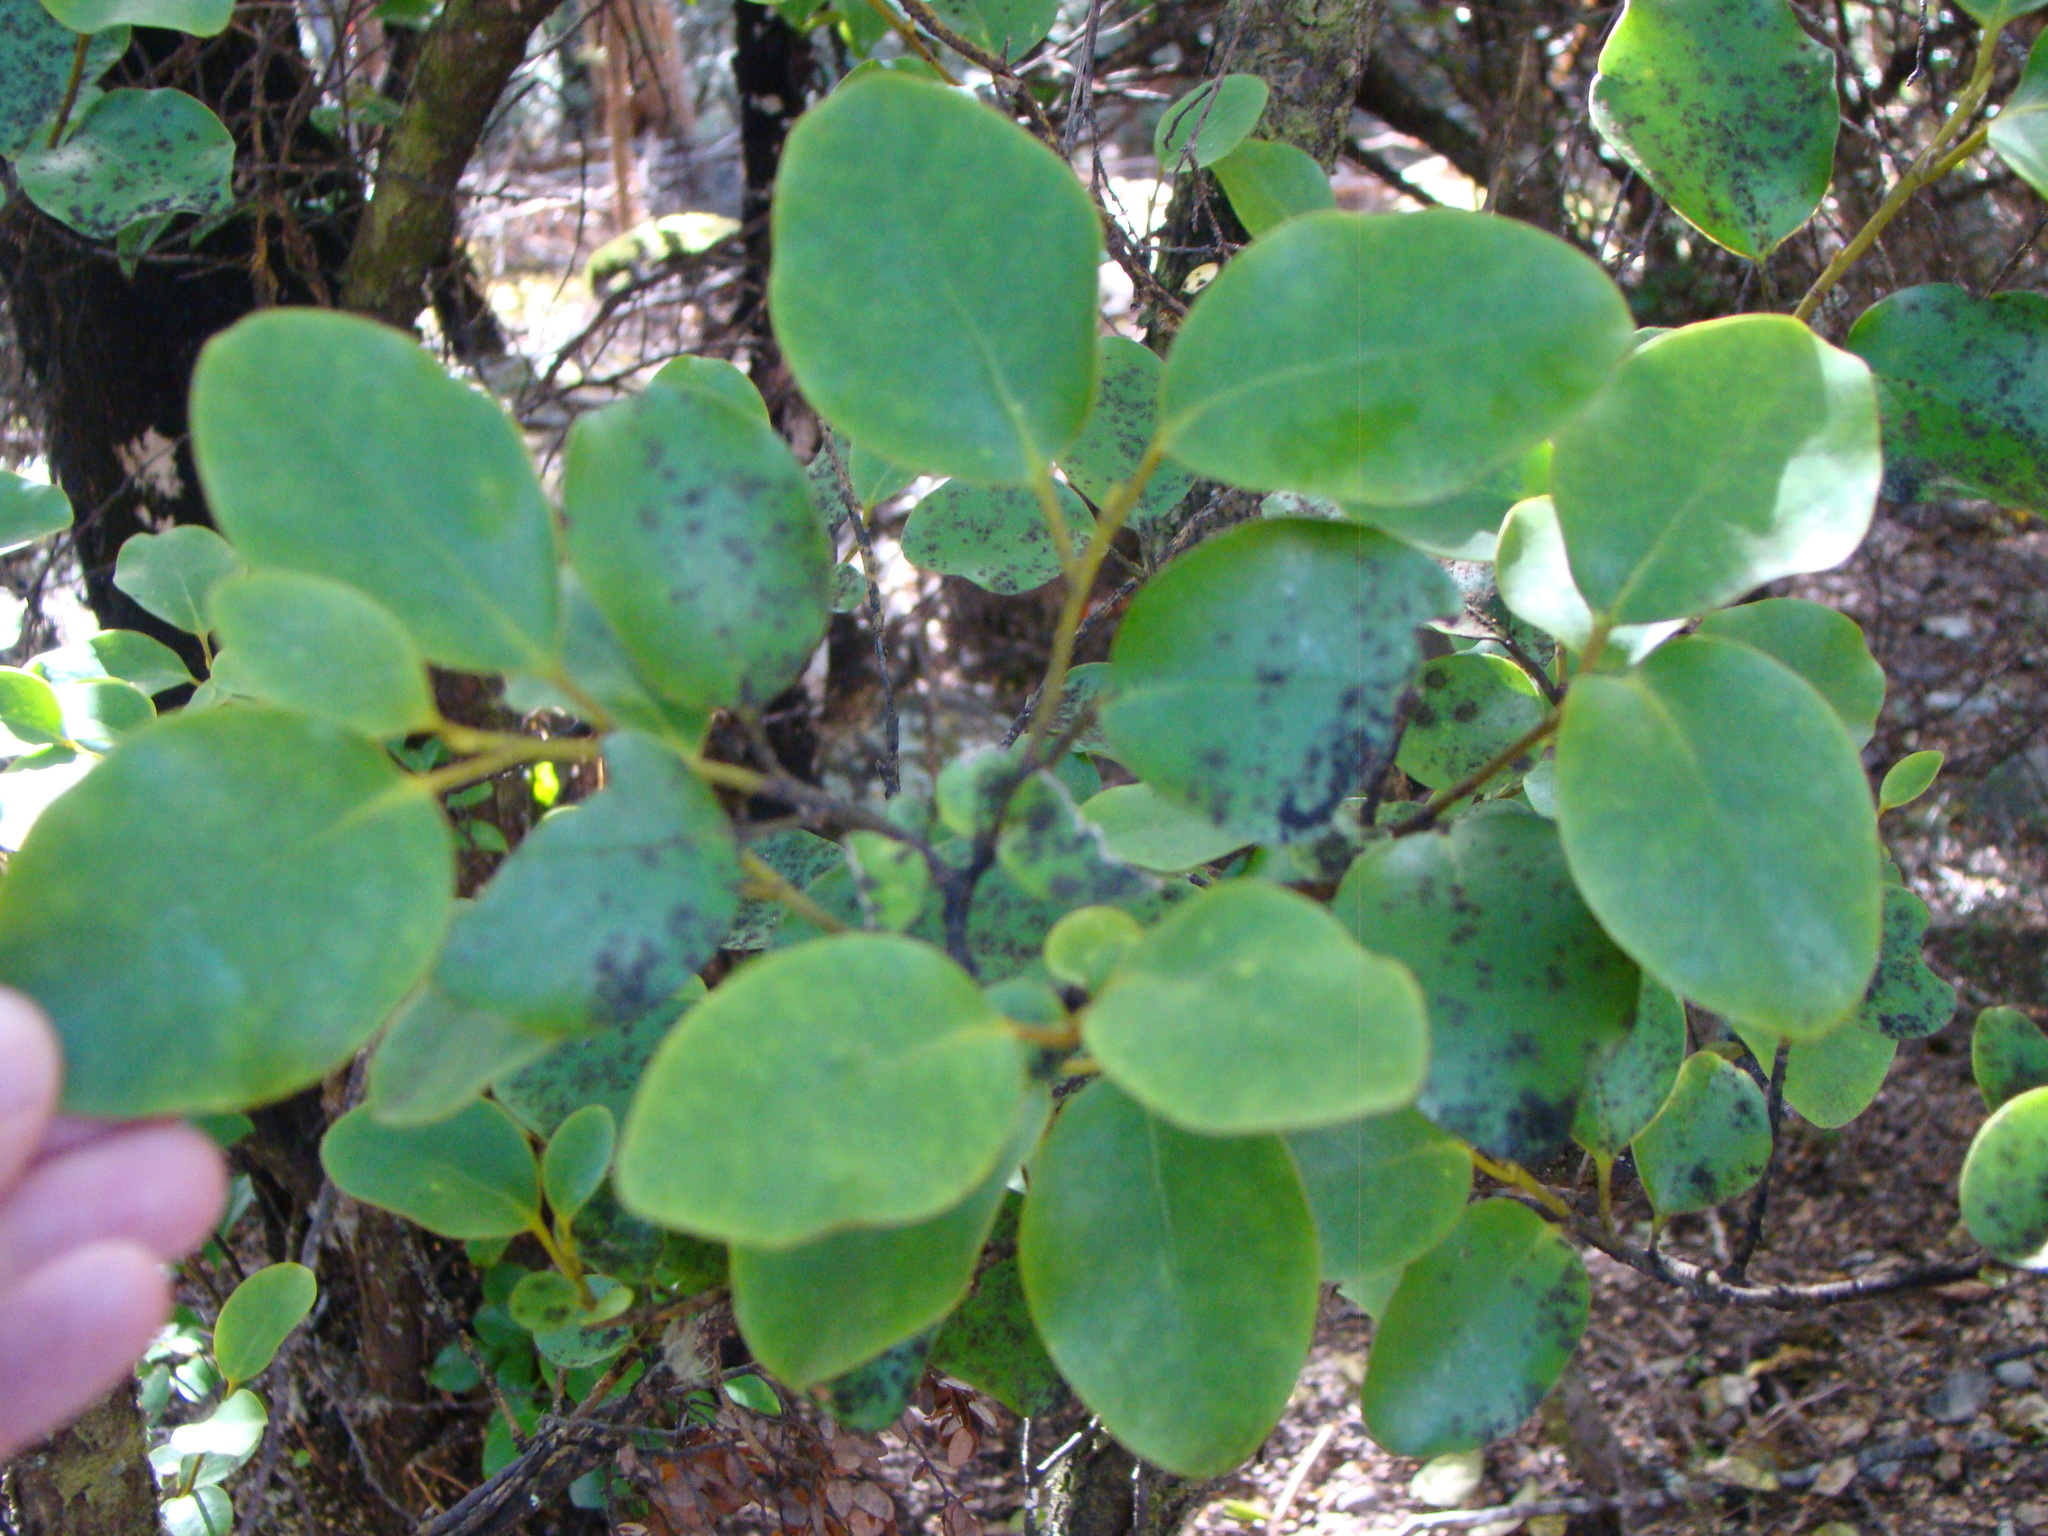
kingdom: Plantae
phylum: Tracheophyta
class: Magnoliopsida
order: Apiales
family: Griseliniaceae
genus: Griselinia
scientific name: Griselinia littoralis
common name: New zealand broadleaf
